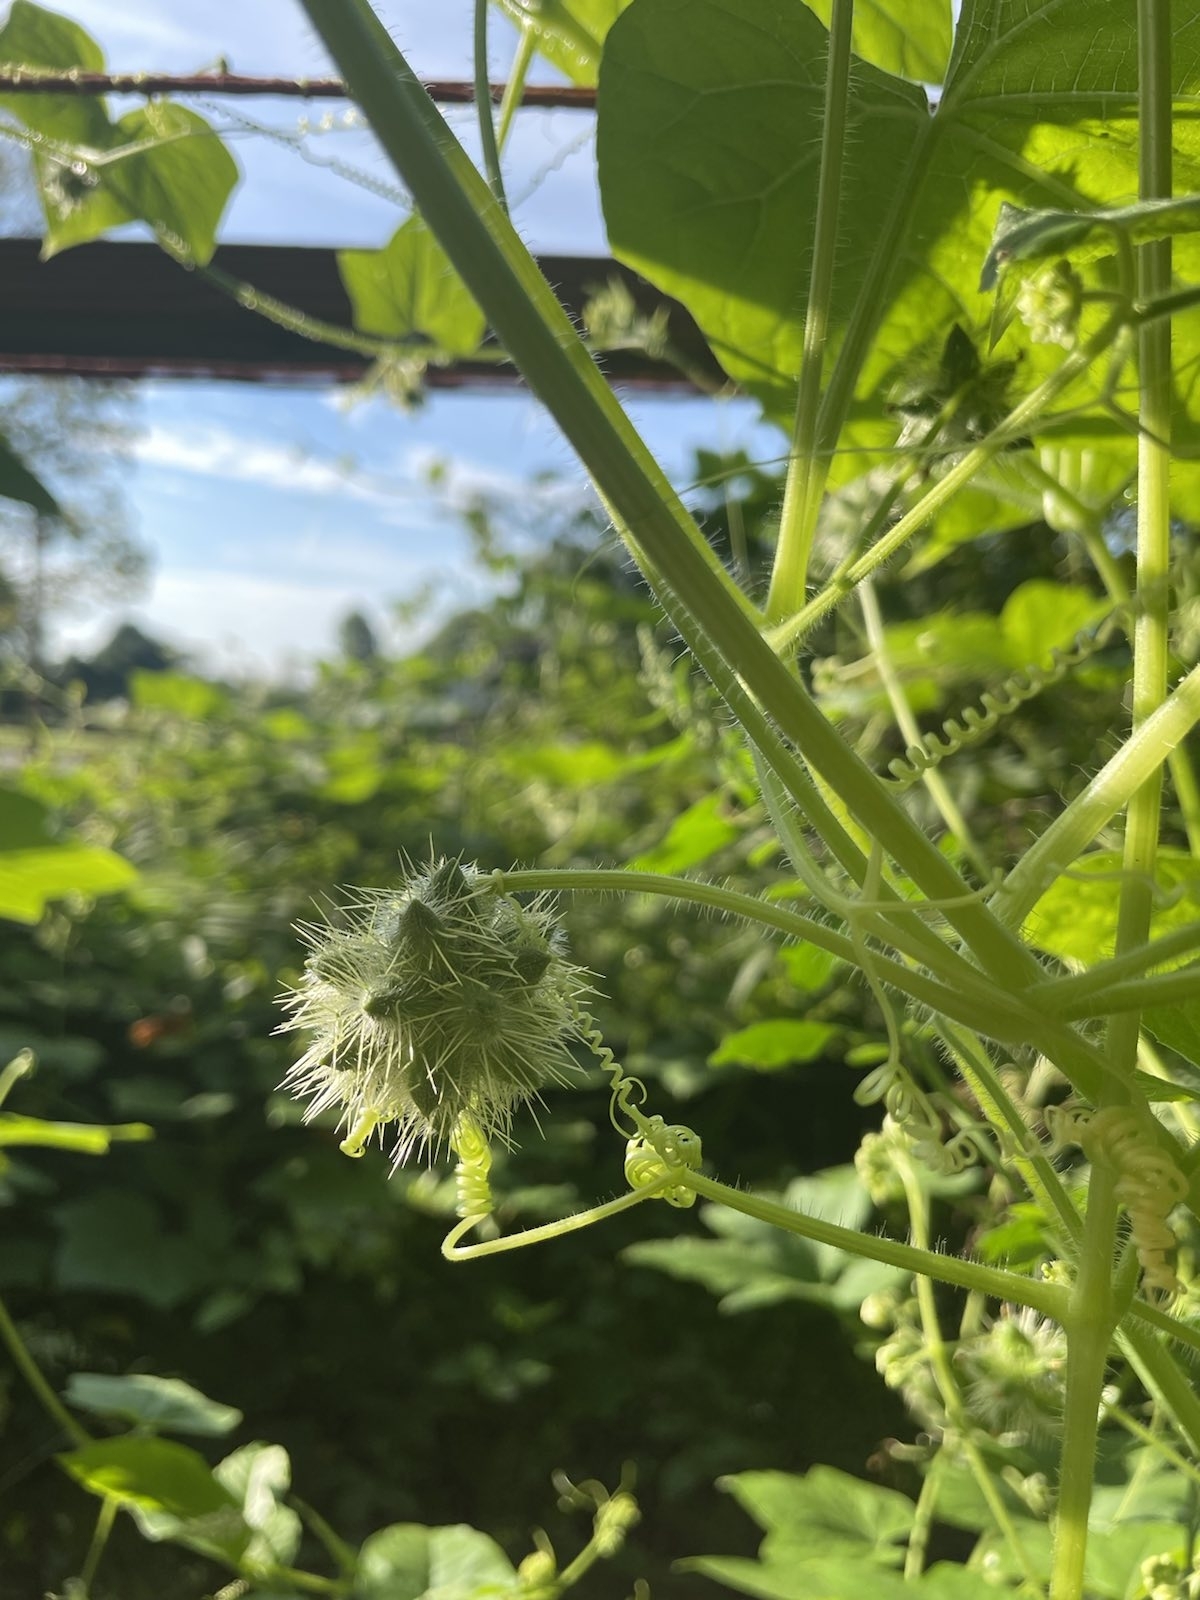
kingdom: Plantae
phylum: Tracheophyta
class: Magnoliopsida
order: Cucurbitales
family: Cucurbitaceae
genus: Sicyos
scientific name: Sicyos angulatus
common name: Angled burr cucumber
